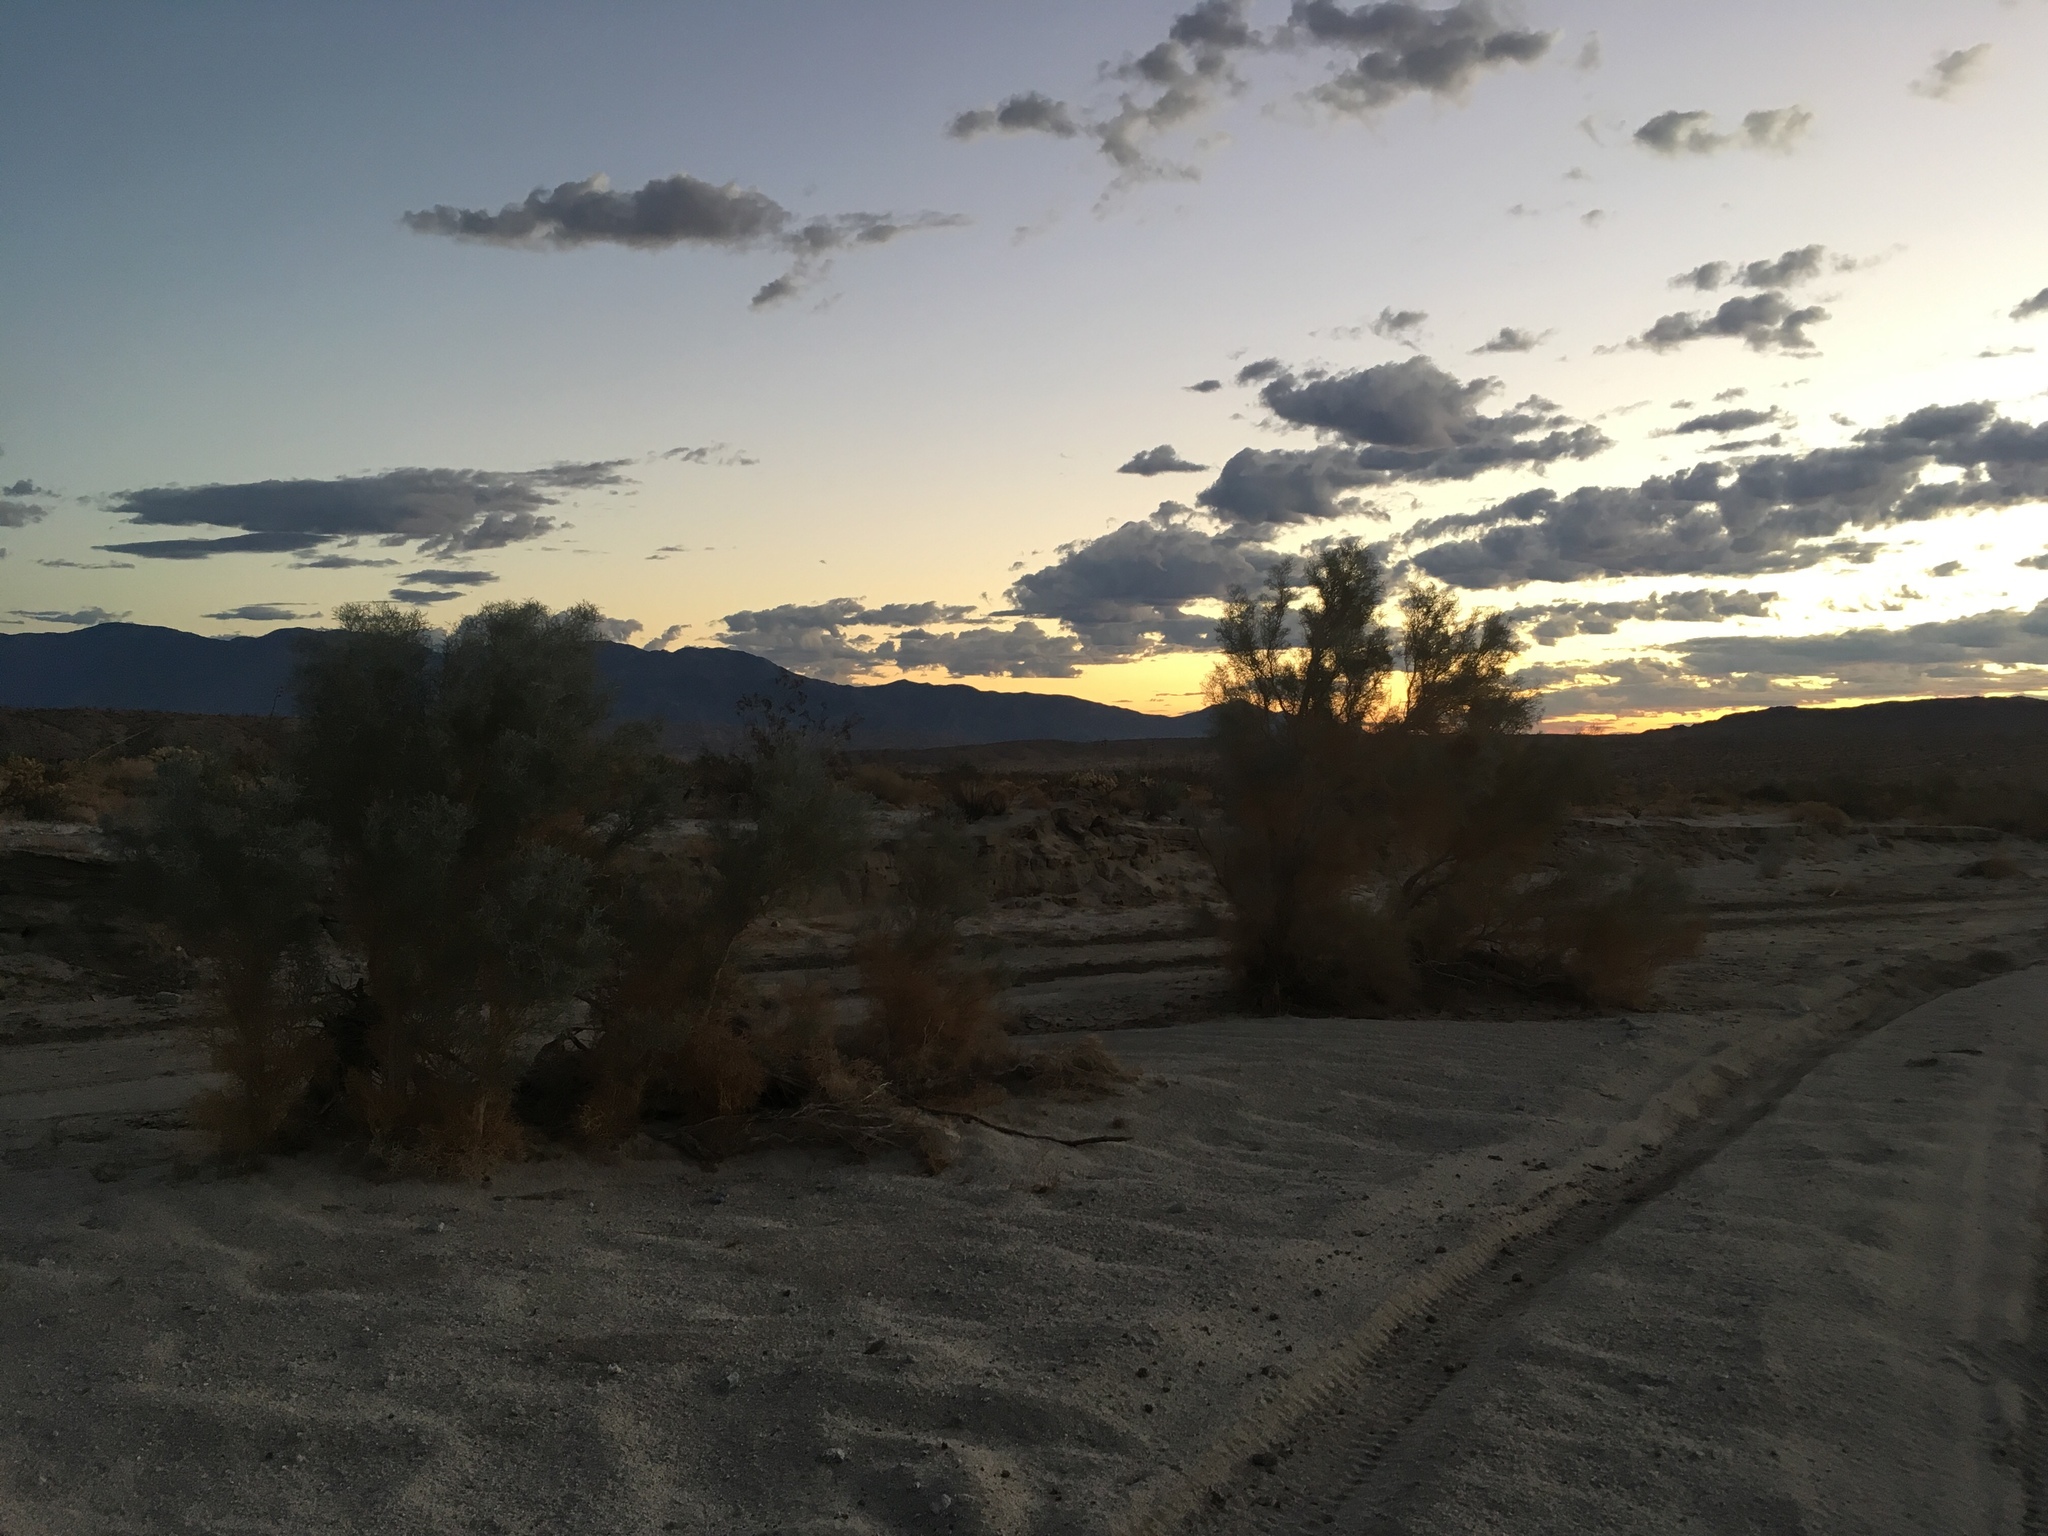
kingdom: Plantae
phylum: Tracheophyta
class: Magnoliopsida
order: Fabales
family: Fabaceae
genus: Psorothamnus
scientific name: Psorothamnus spinosus
